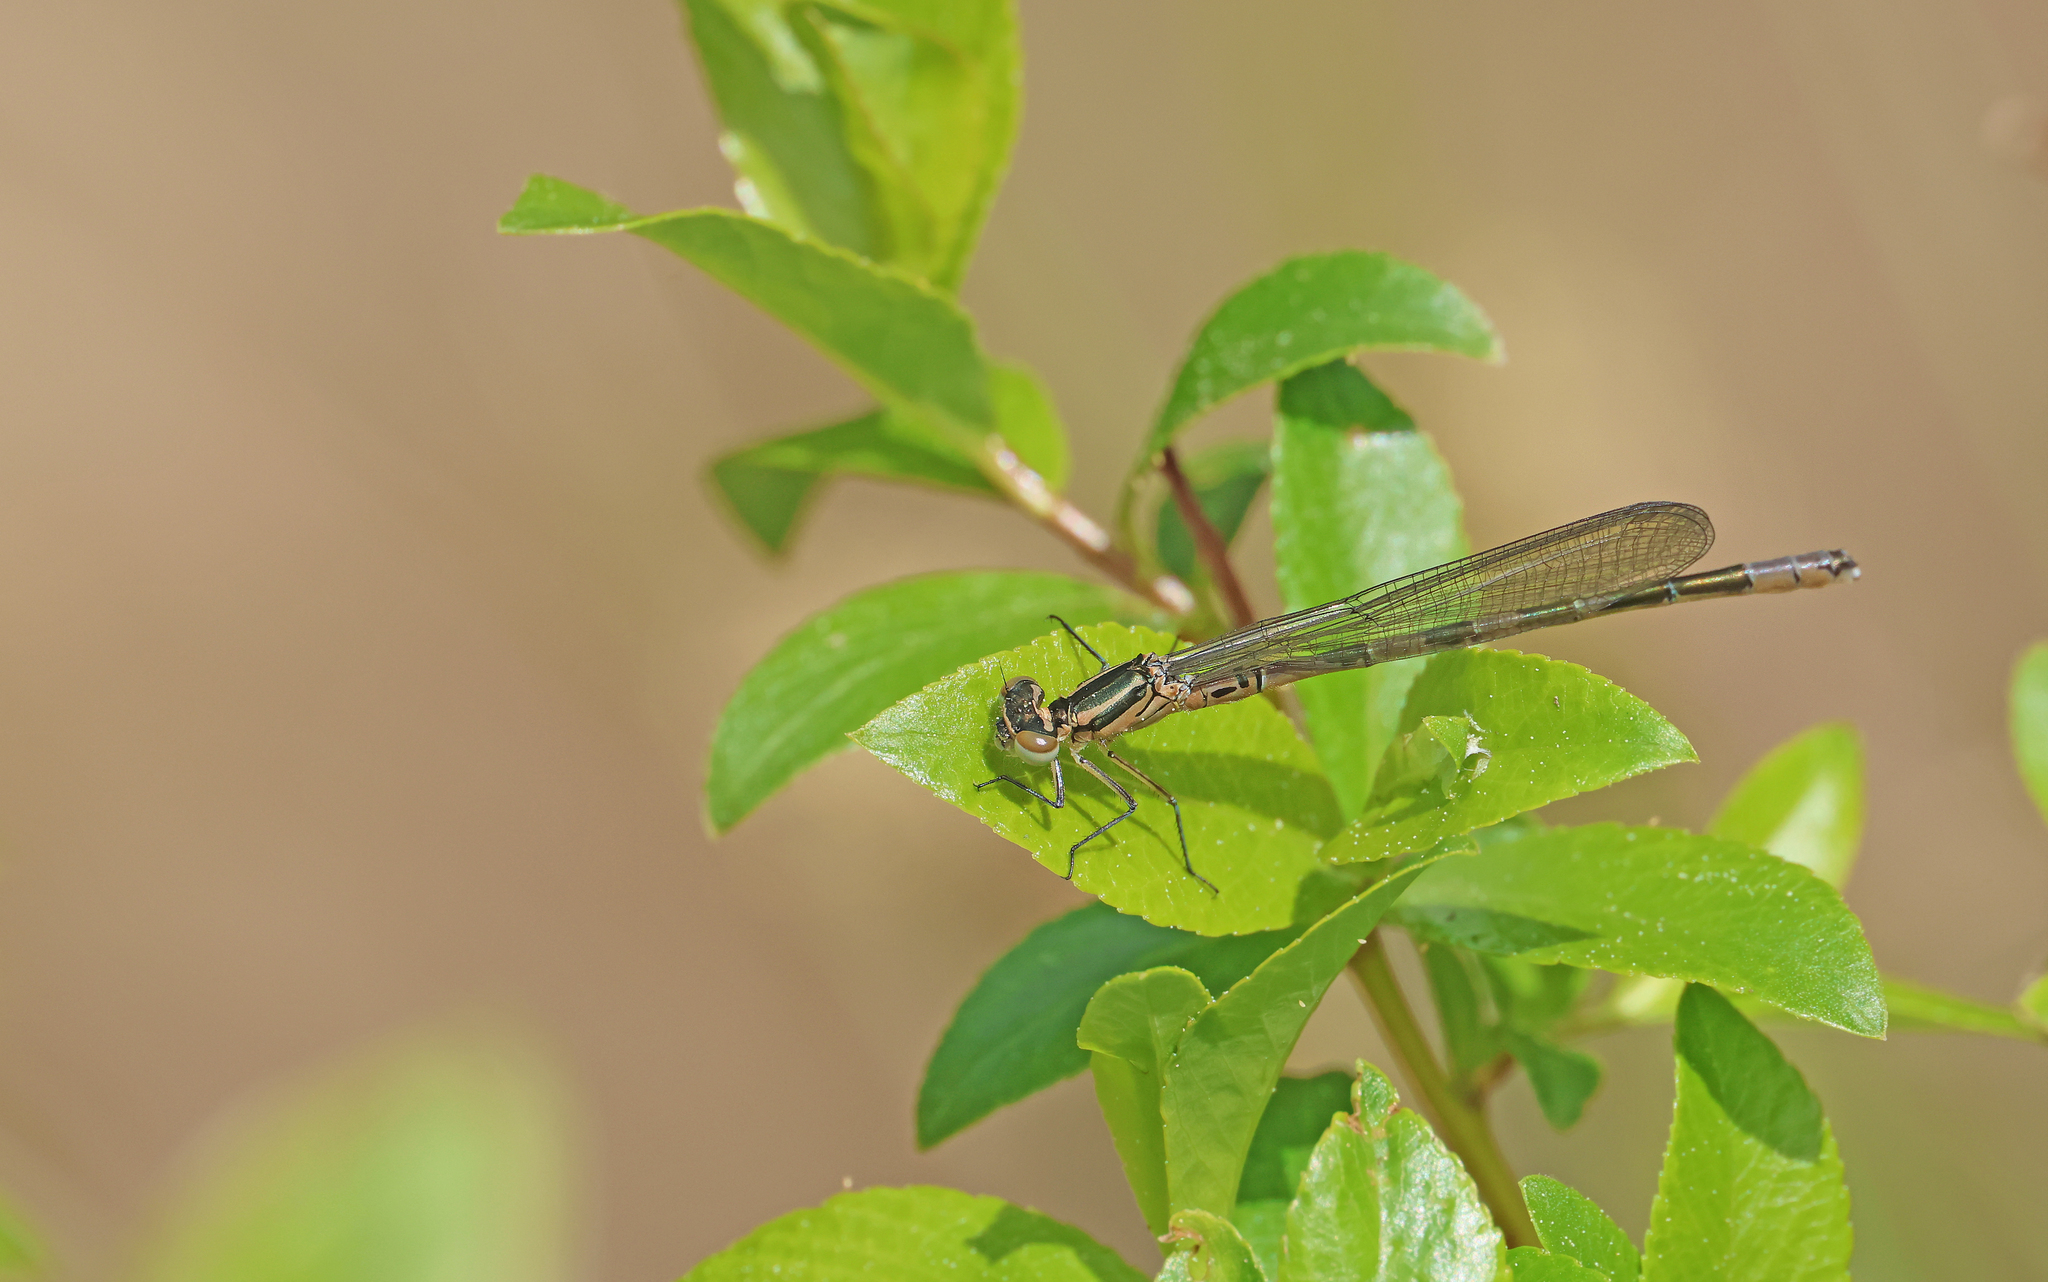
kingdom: Animalia
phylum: Arthropoda
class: Insecta
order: Odonata
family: Coenagrionidae
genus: Coenagrion
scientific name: Coenagrion hastulatum
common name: Spearhead bluet
